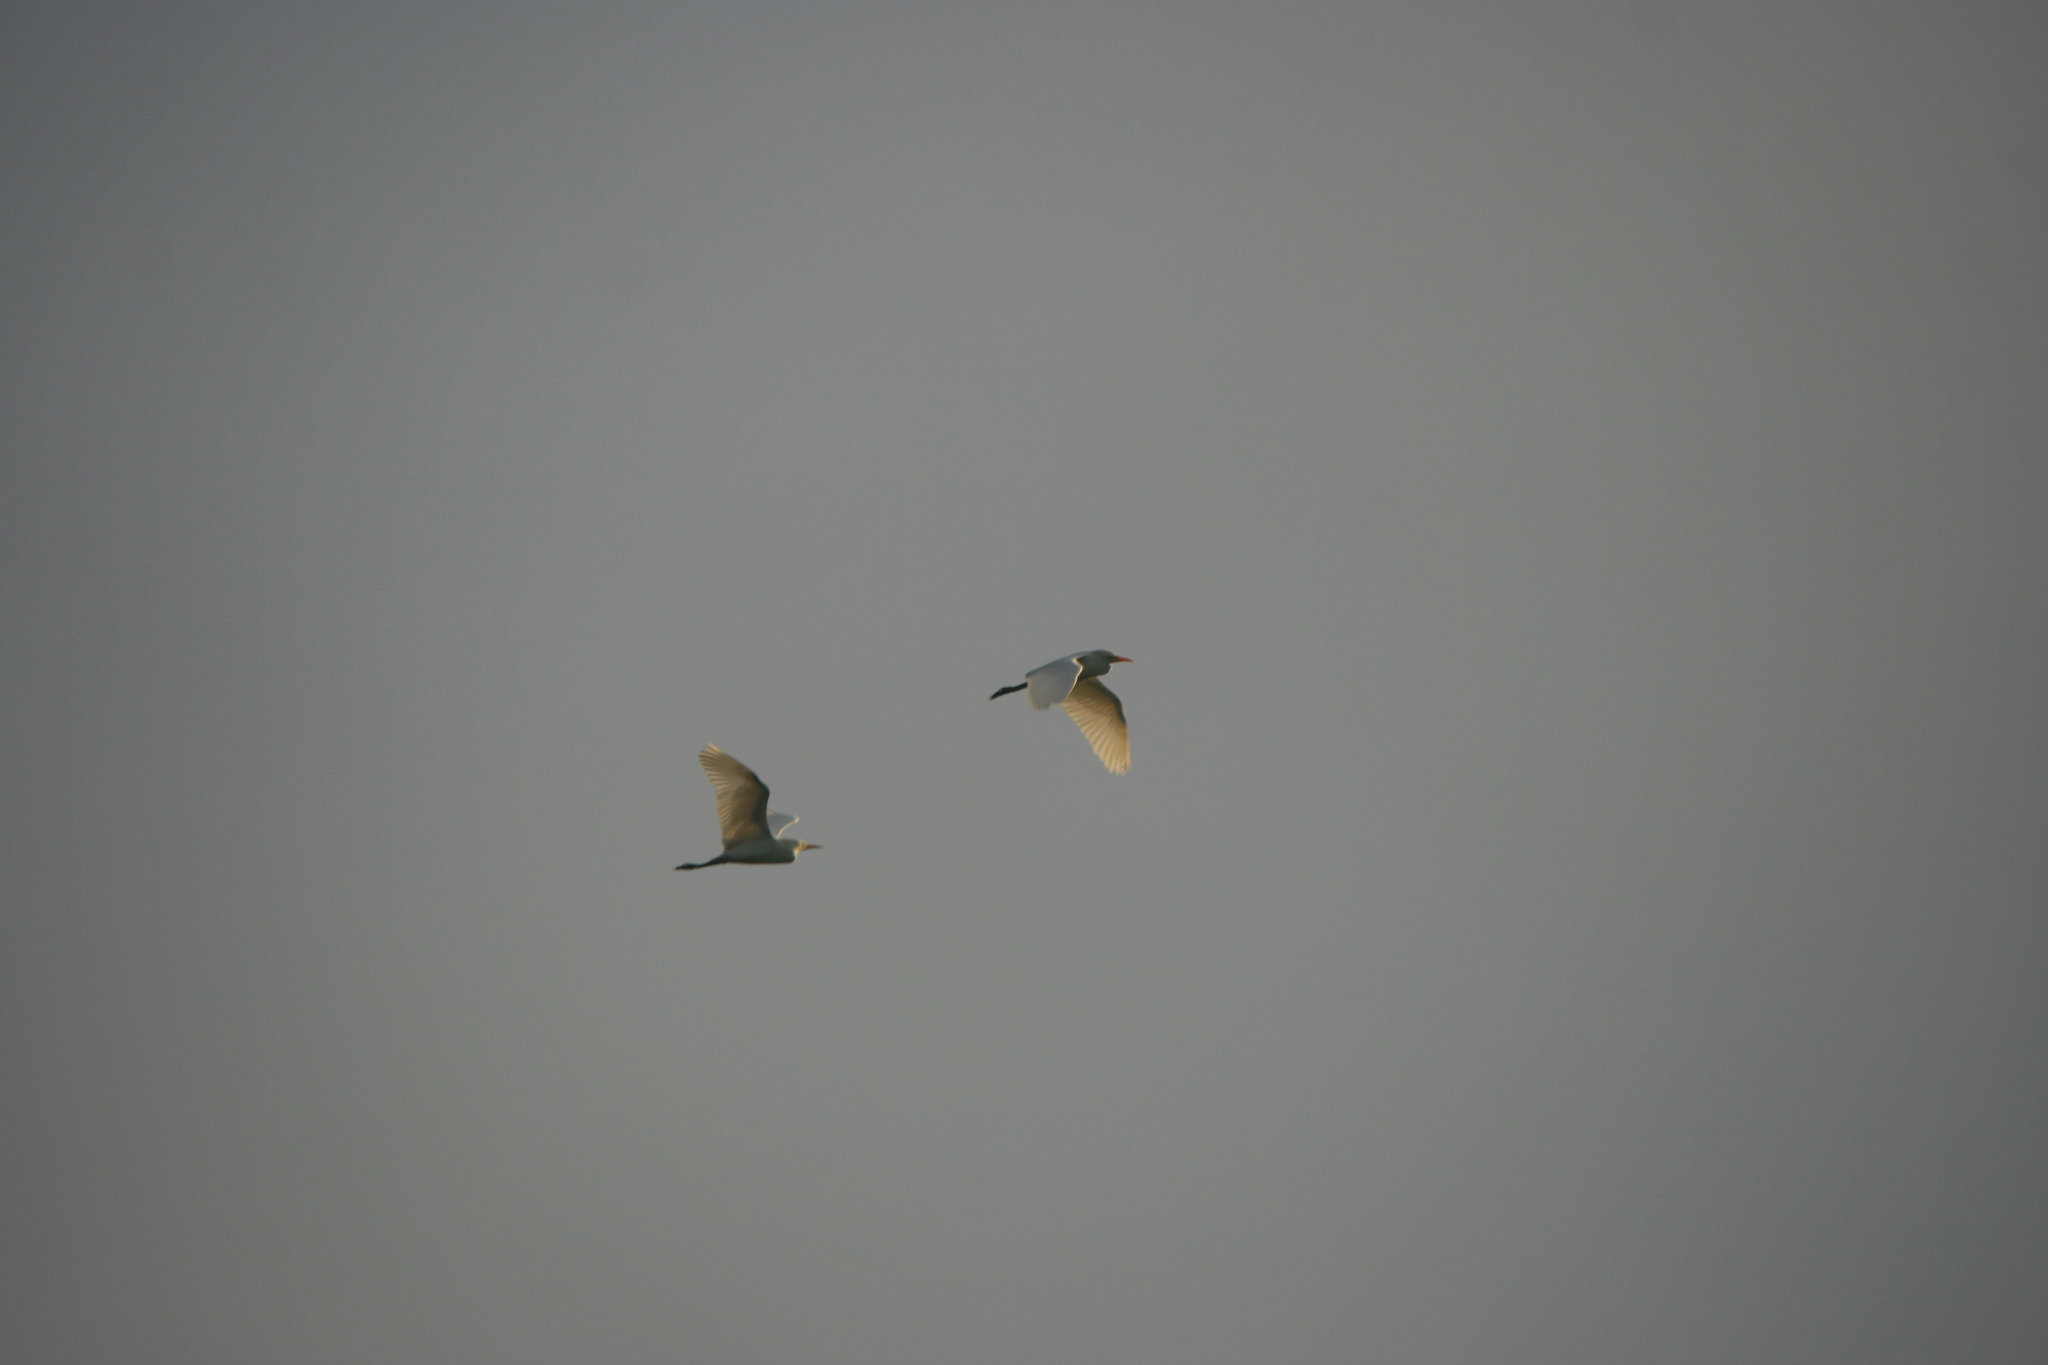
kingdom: Animalia
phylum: Chordata
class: Aves
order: Pelecaniformes
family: Ardeidae
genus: Bubulcus
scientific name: Bubulcus ibis
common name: Cattle egret
